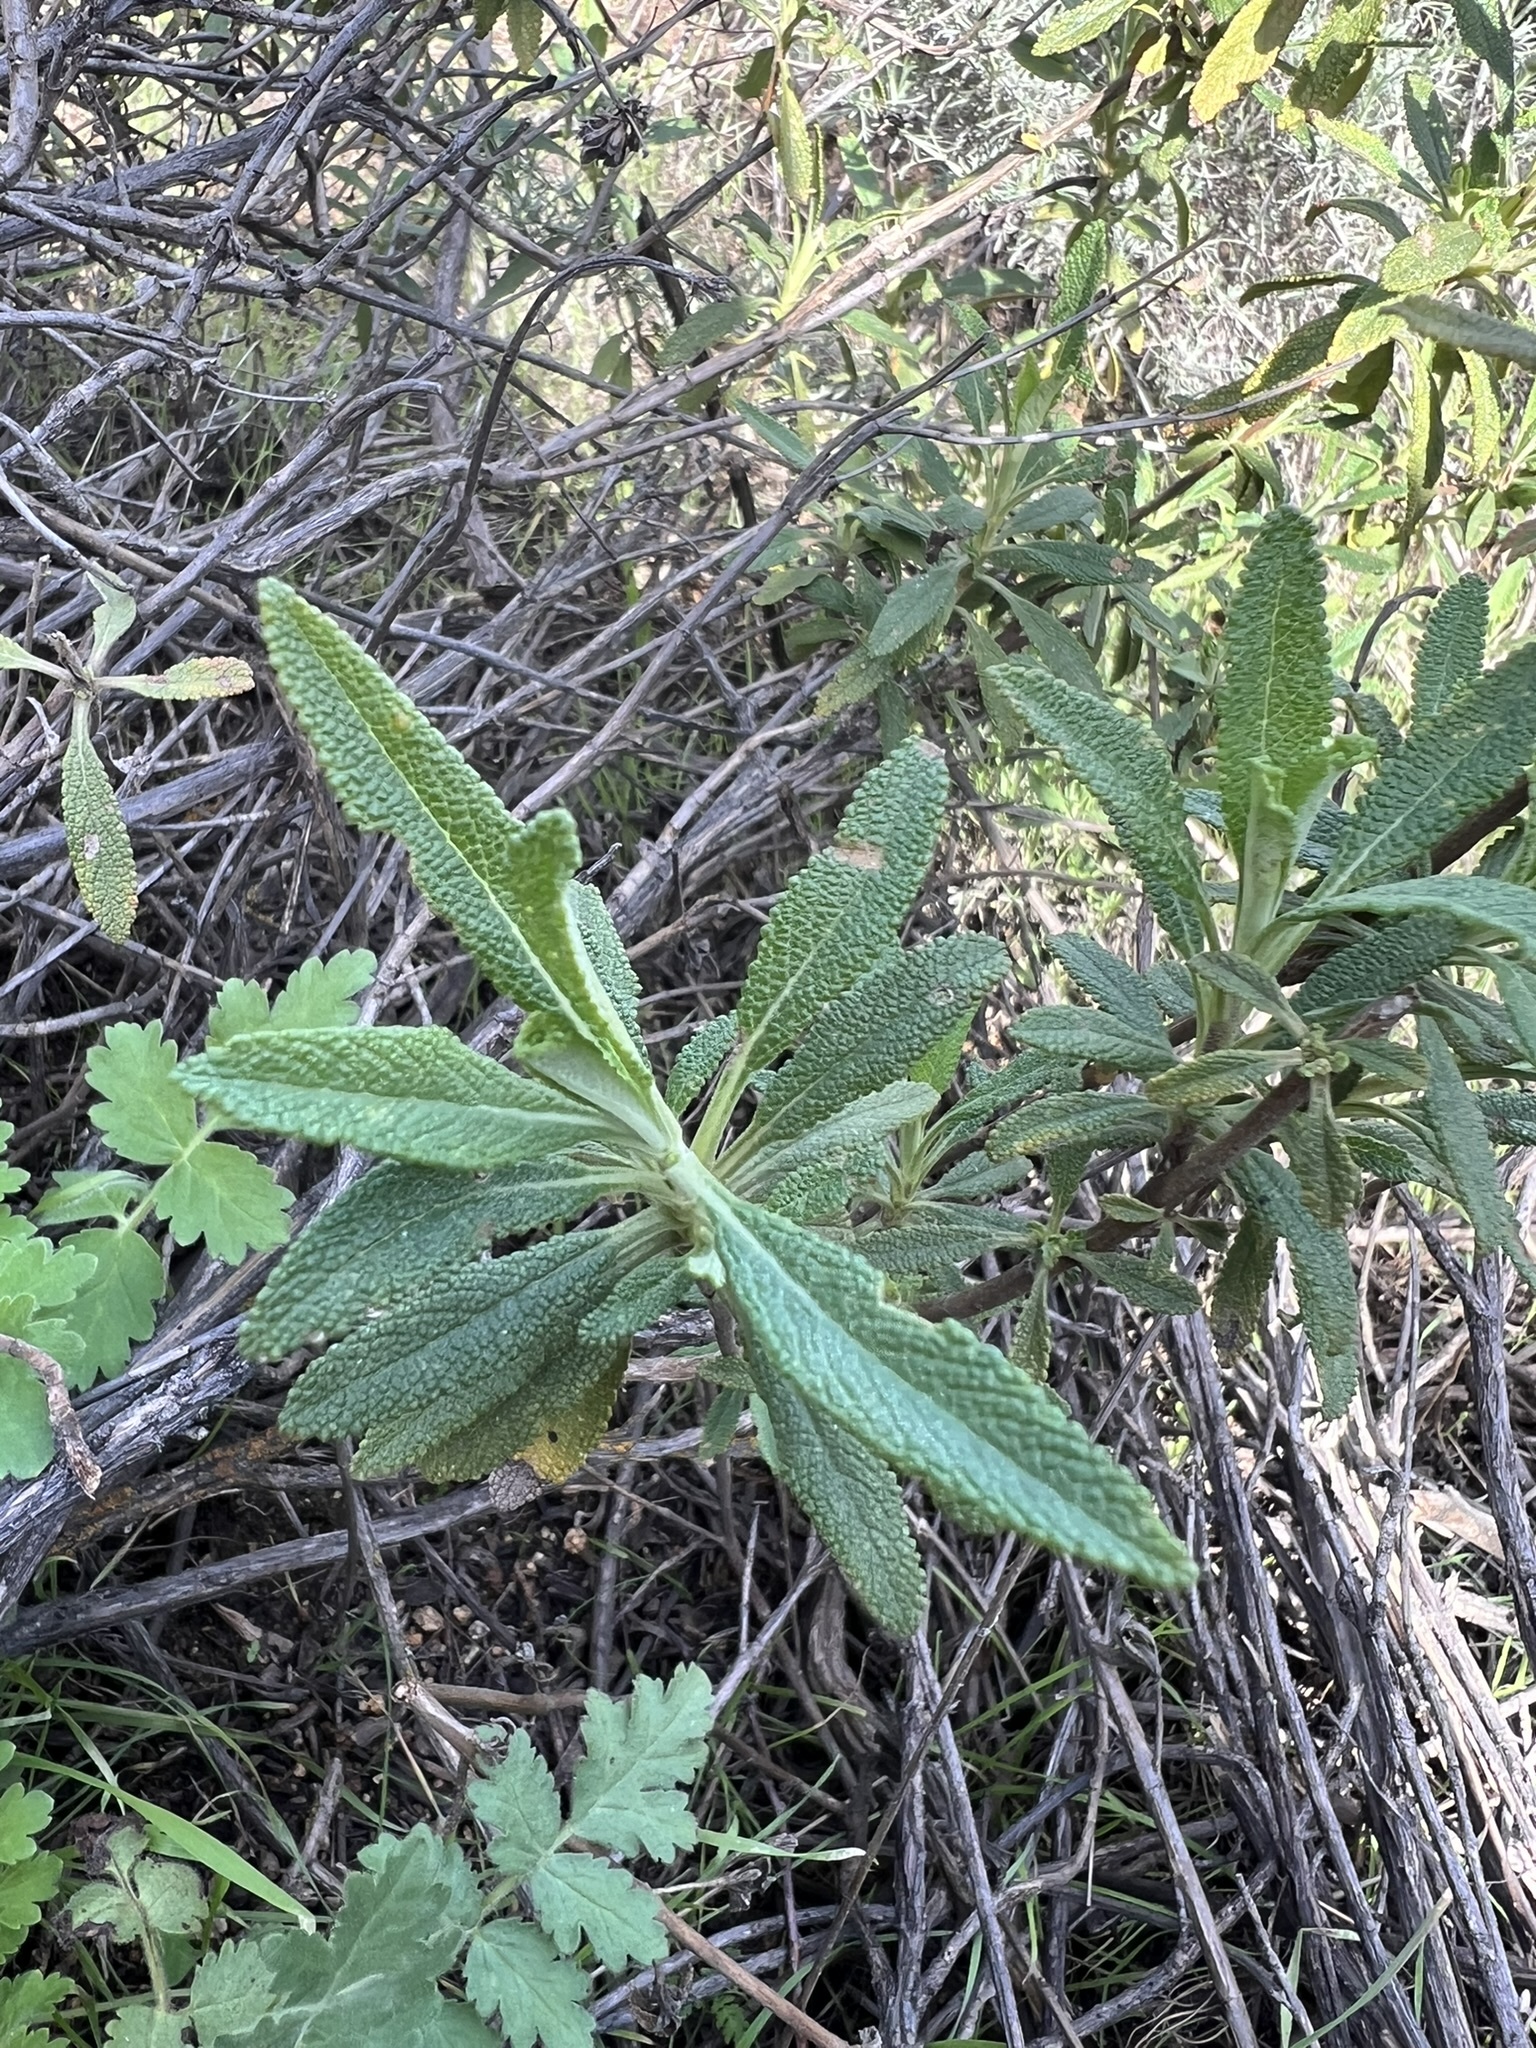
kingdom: Plantae
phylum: Tracheophyta
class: Magnoliopsida
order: Lamiales
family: Lamiaceae
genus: Salvia
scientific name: Salvia mellifera
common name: Black sage
